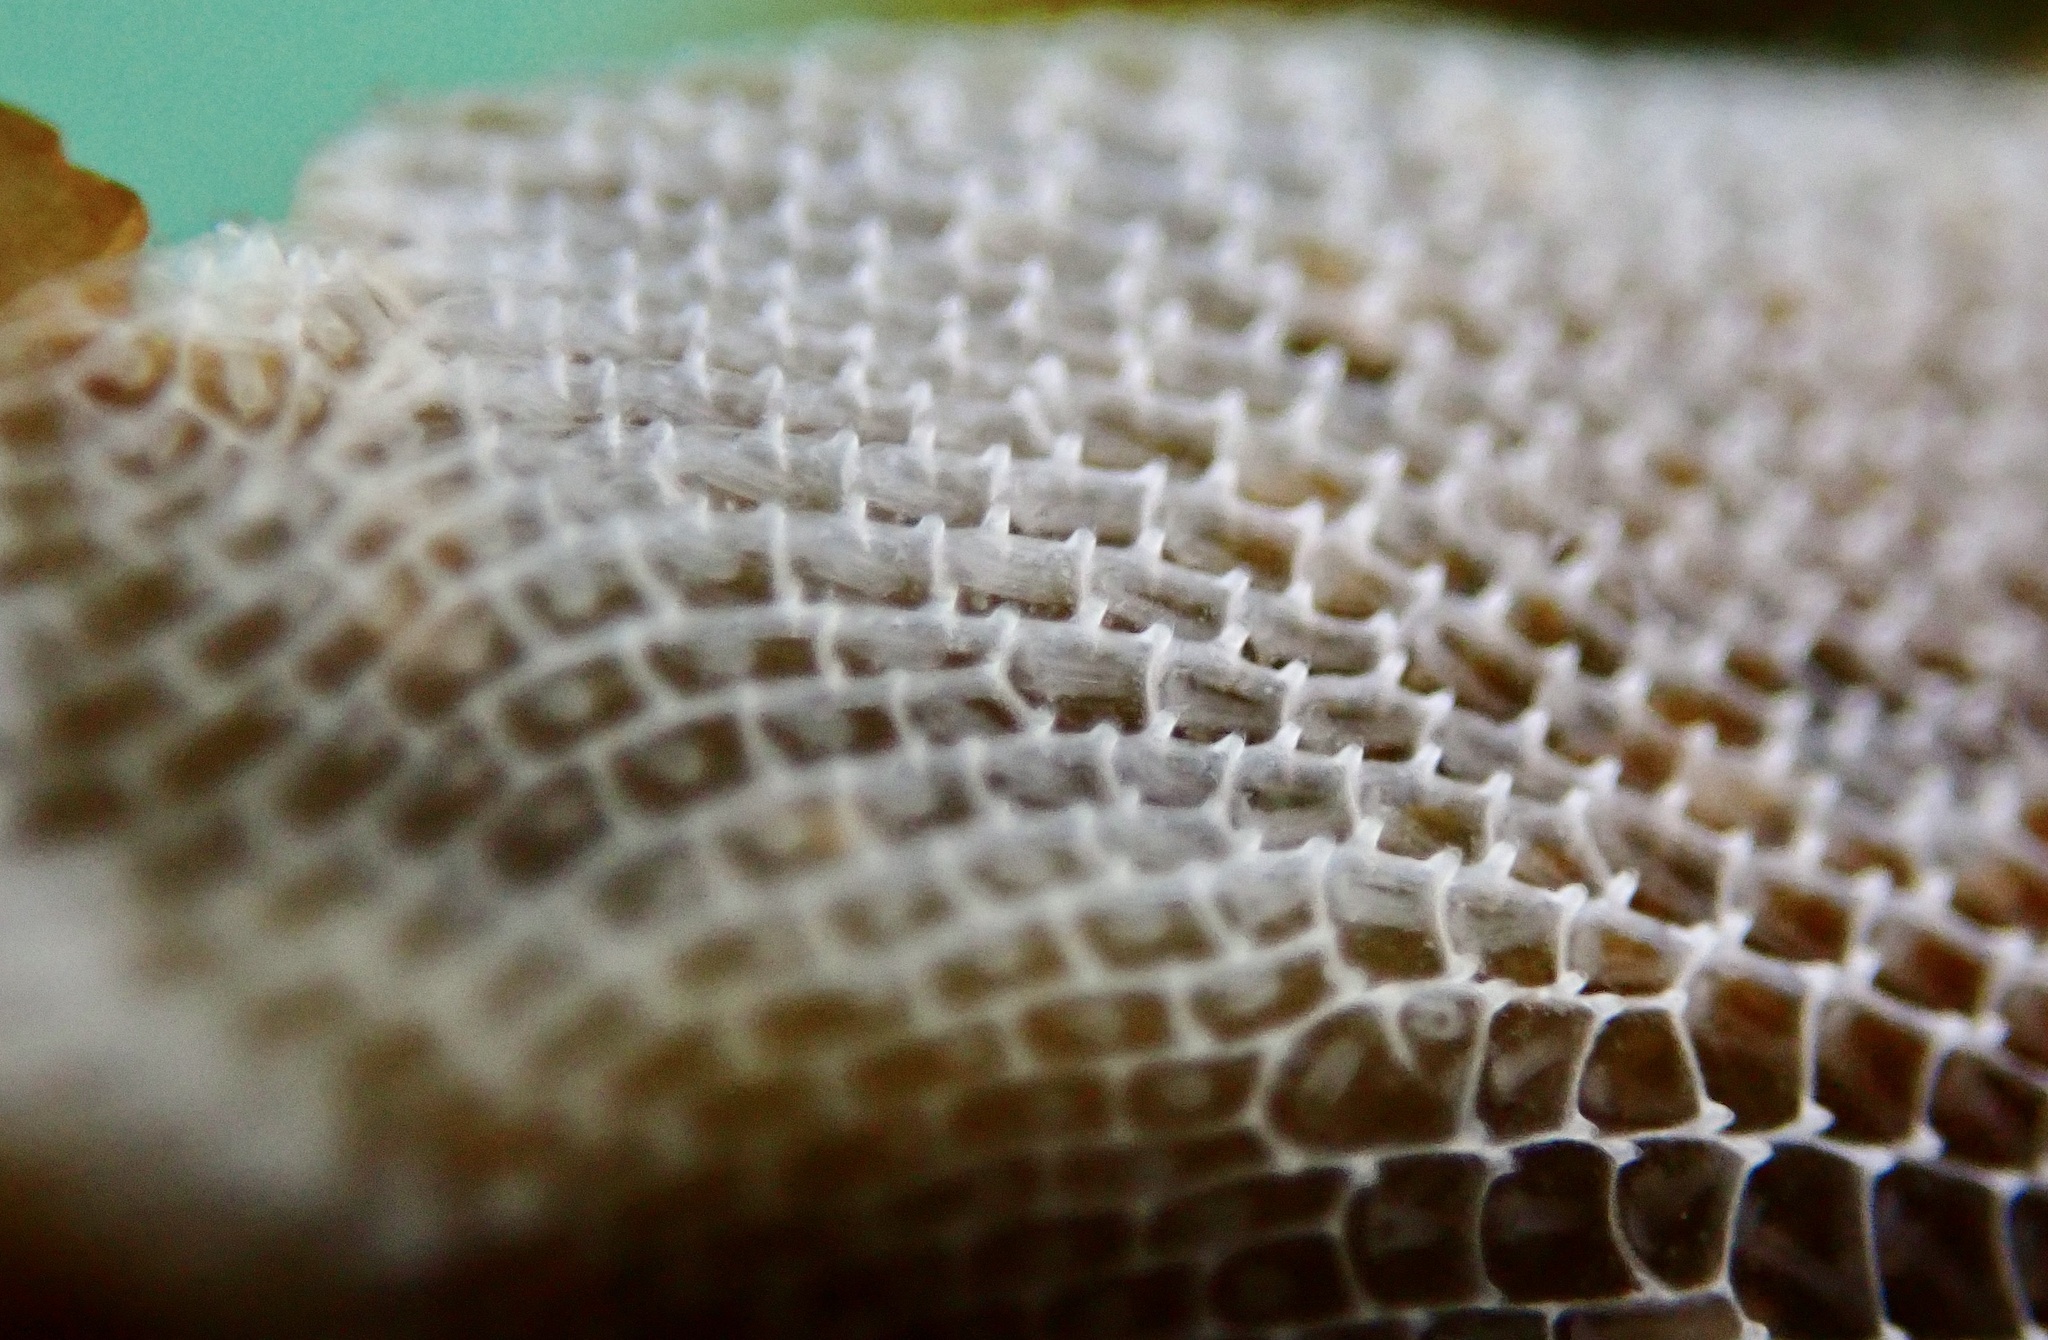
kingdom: Animalia
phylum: Bryozoa
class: Gymnolaemata
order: Cheilostomatida
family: Membraniporidae
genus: Membranipora
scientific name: Membranipora membranacea
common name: Sea mat
